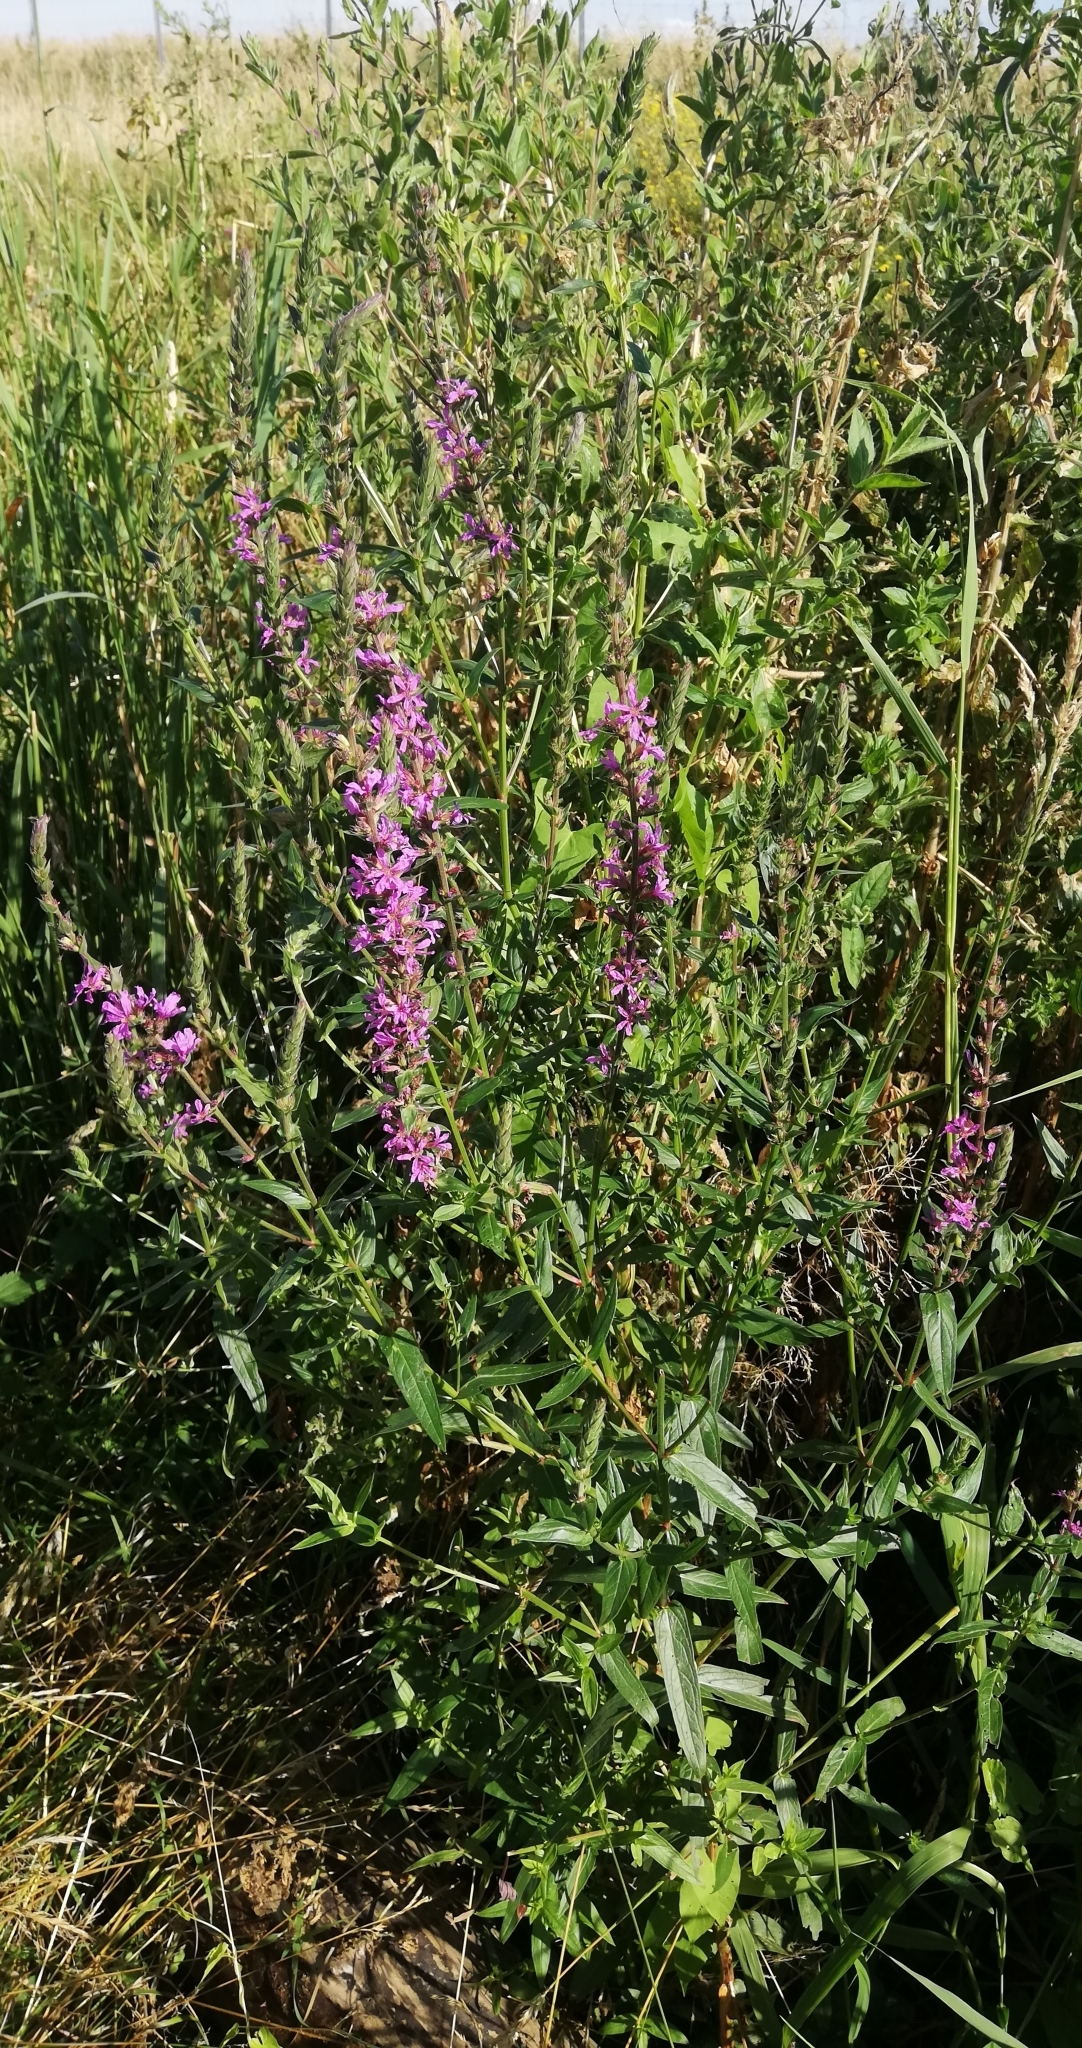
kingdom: Plantae
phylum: Tracheophyta
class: Magnoliopsida
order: Myrtales
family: Lythraceae
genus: Lythrum
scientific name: Lythrum salicaria
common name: Purple loosestrife
